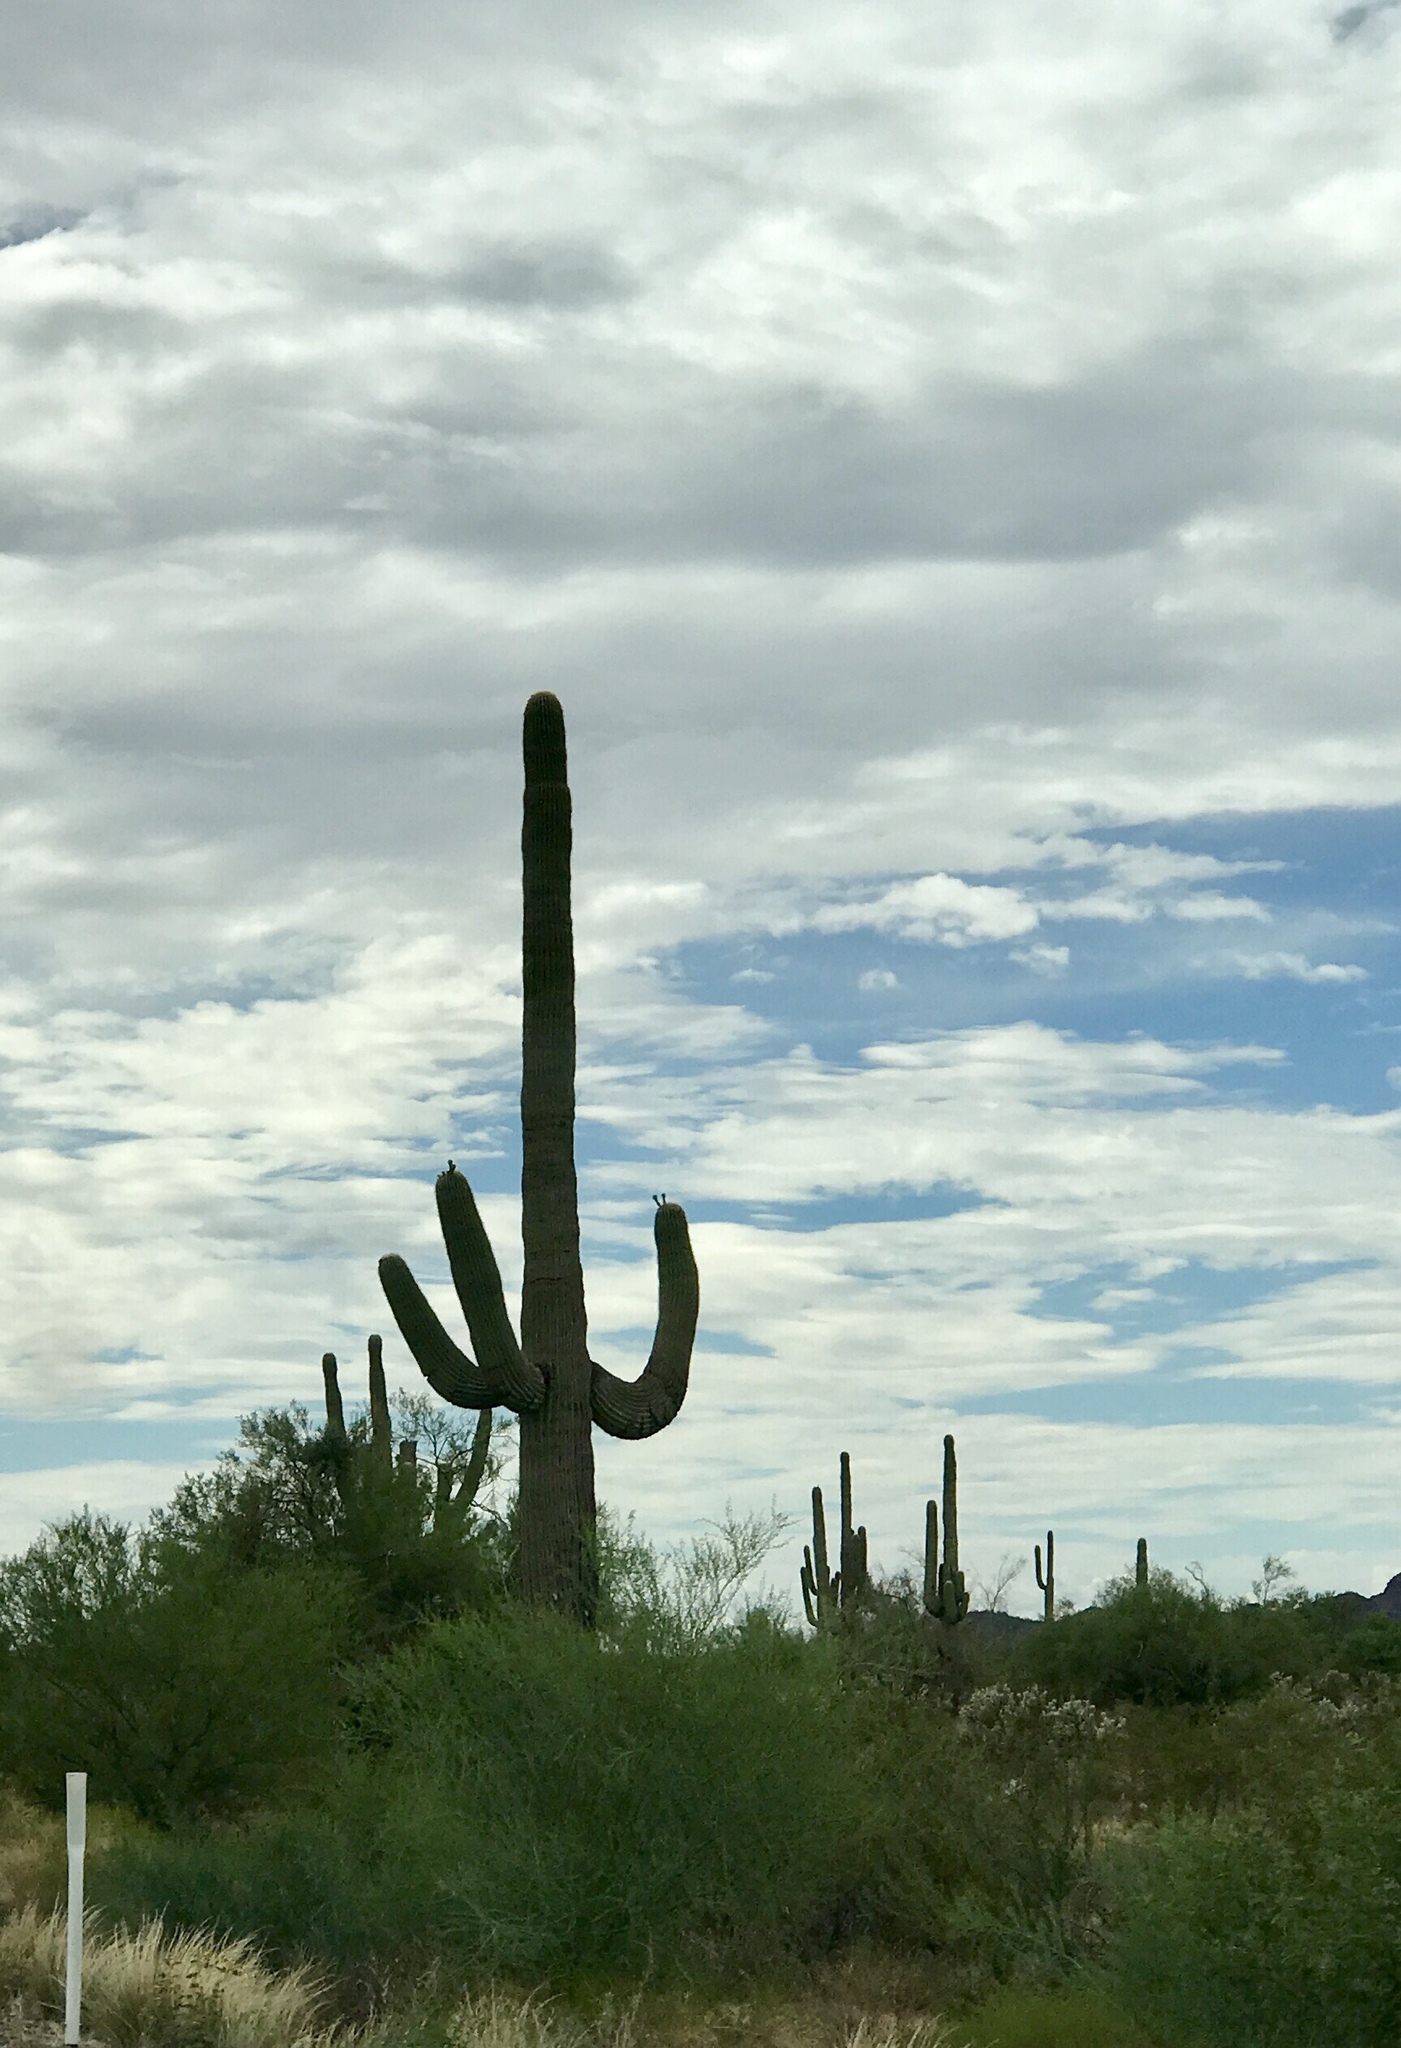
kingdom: Plantae
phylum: Tracheophyta
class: Magnoliopsida
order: Caryophyllales
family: Cactaceae
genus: Carnegiea
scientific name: Carnegiea gigantea
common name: Saguaro
